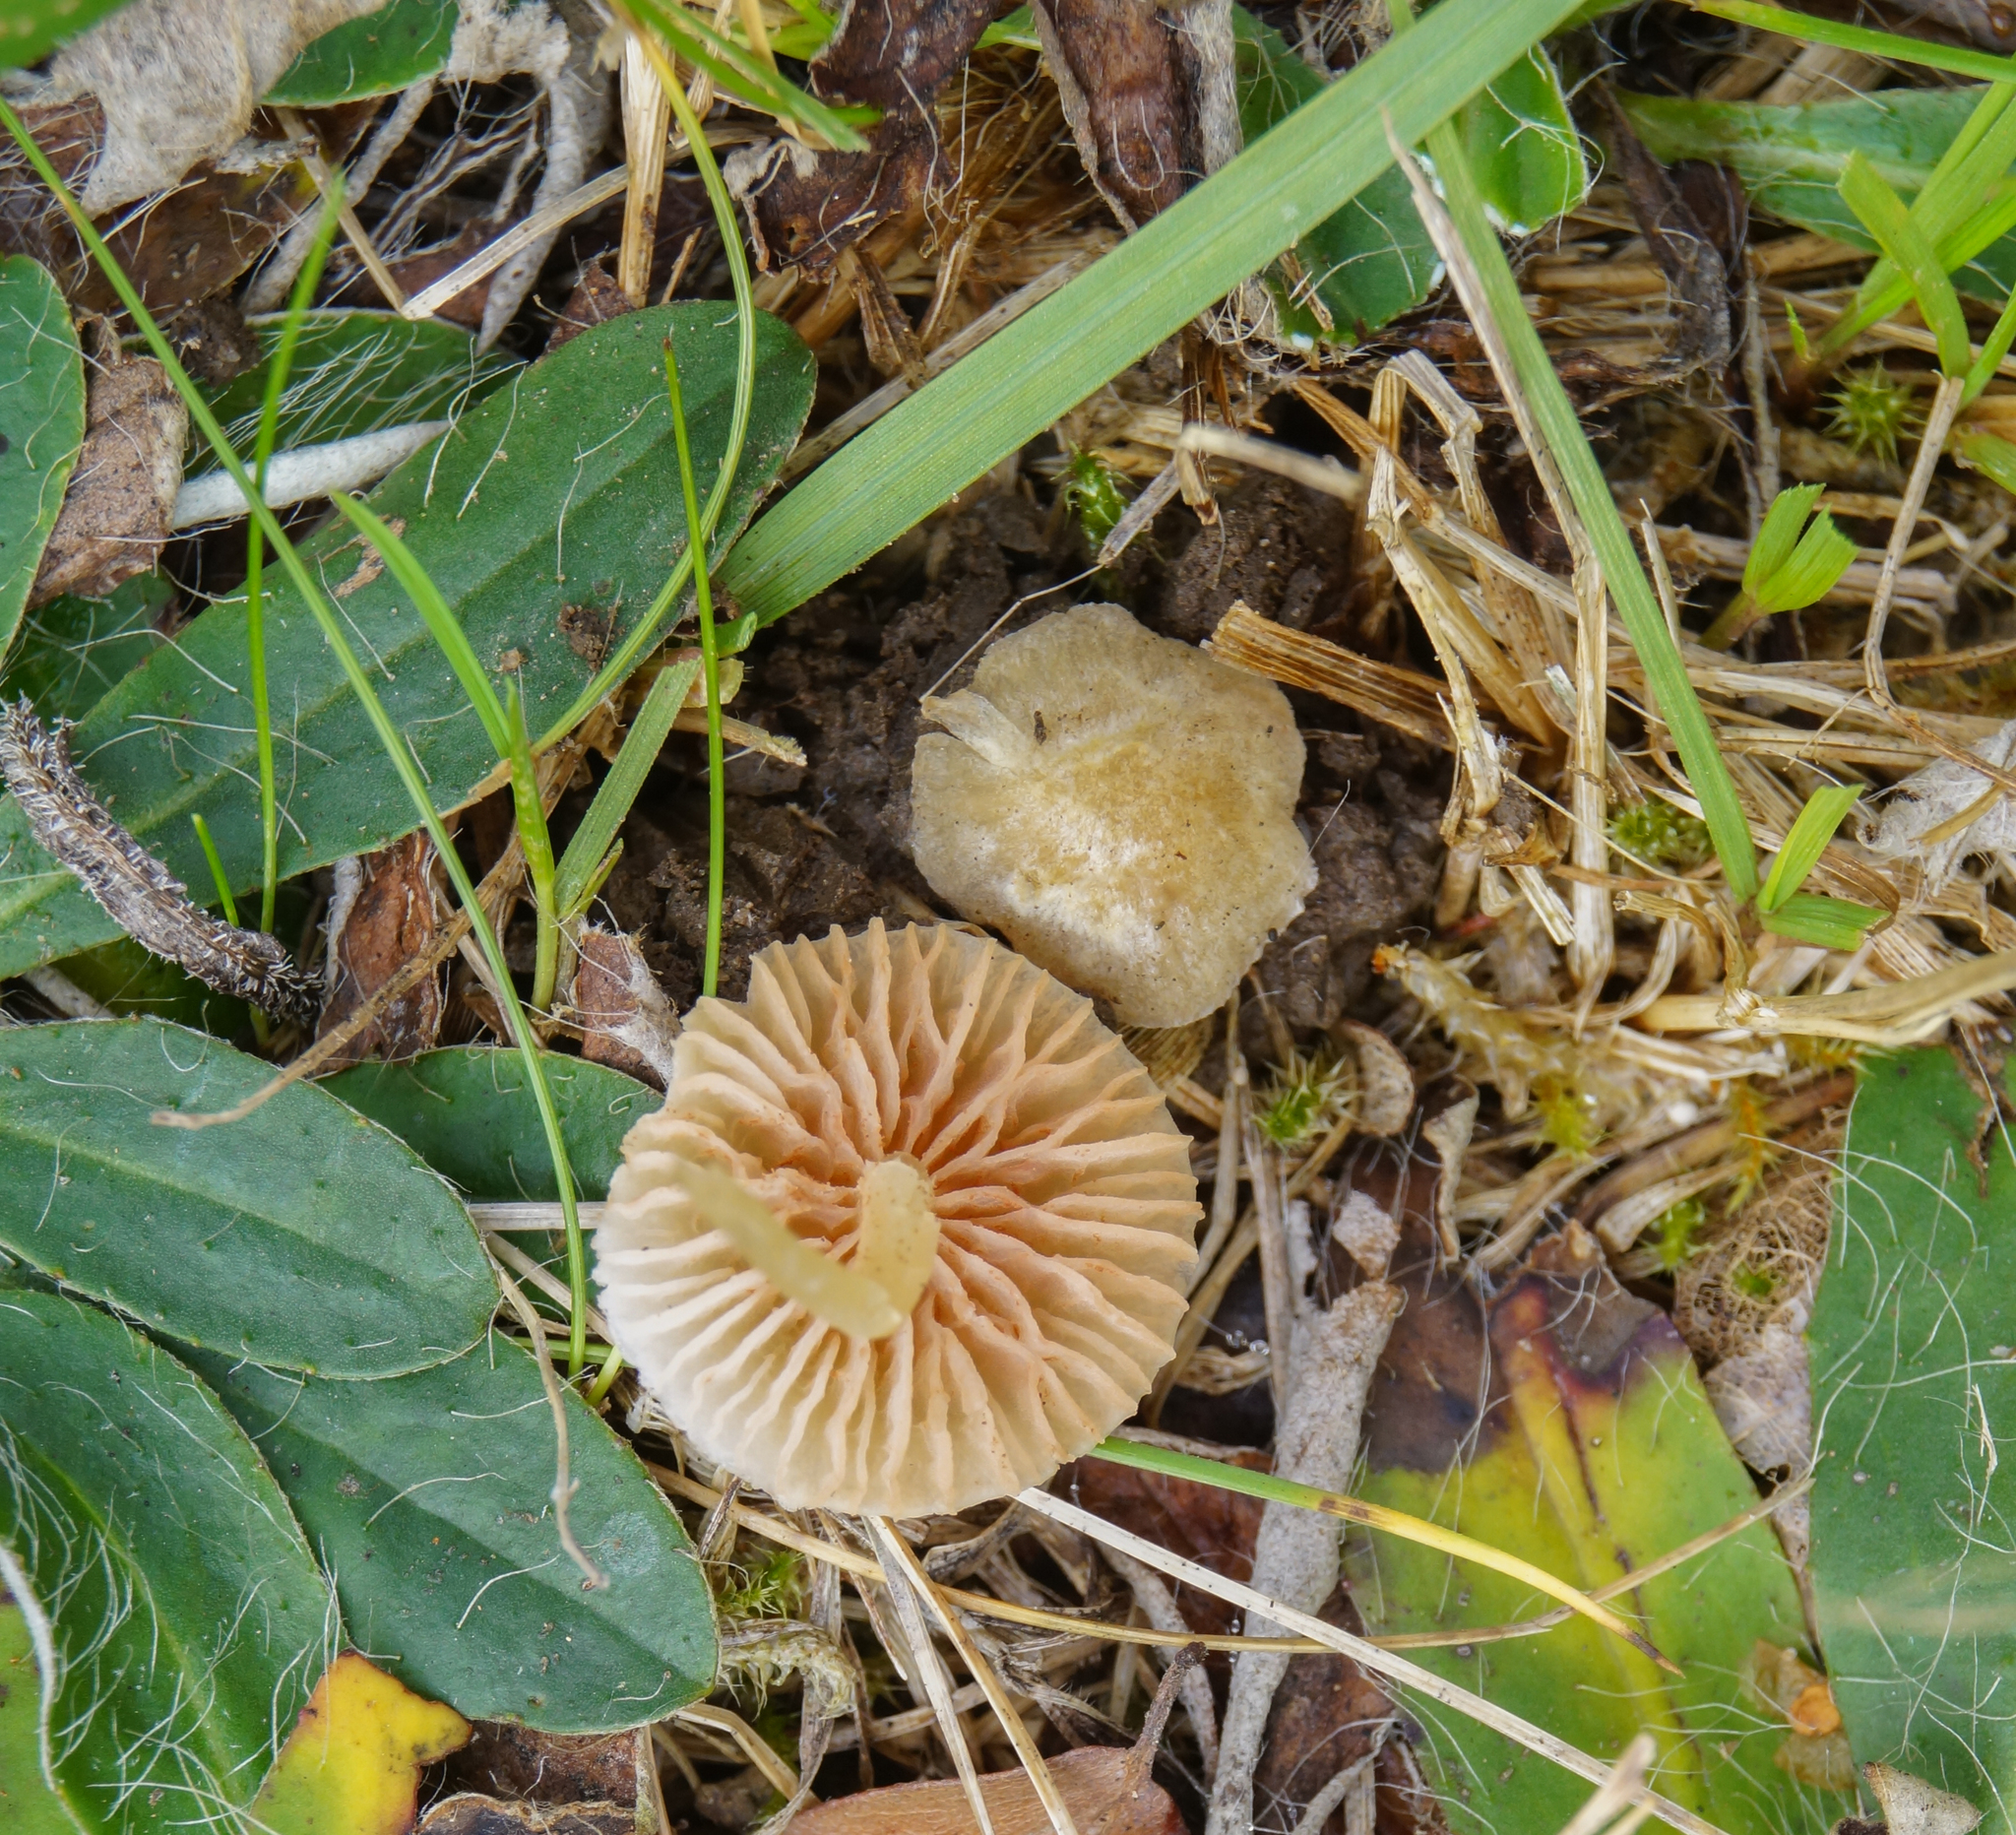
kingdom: Fungi
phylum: Basidiomycota
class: Agaricomycetes
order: Agaricales
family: Entolomataceae
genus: Entoloma
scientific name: Entoloma sericellum
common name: Cream pinkgill
